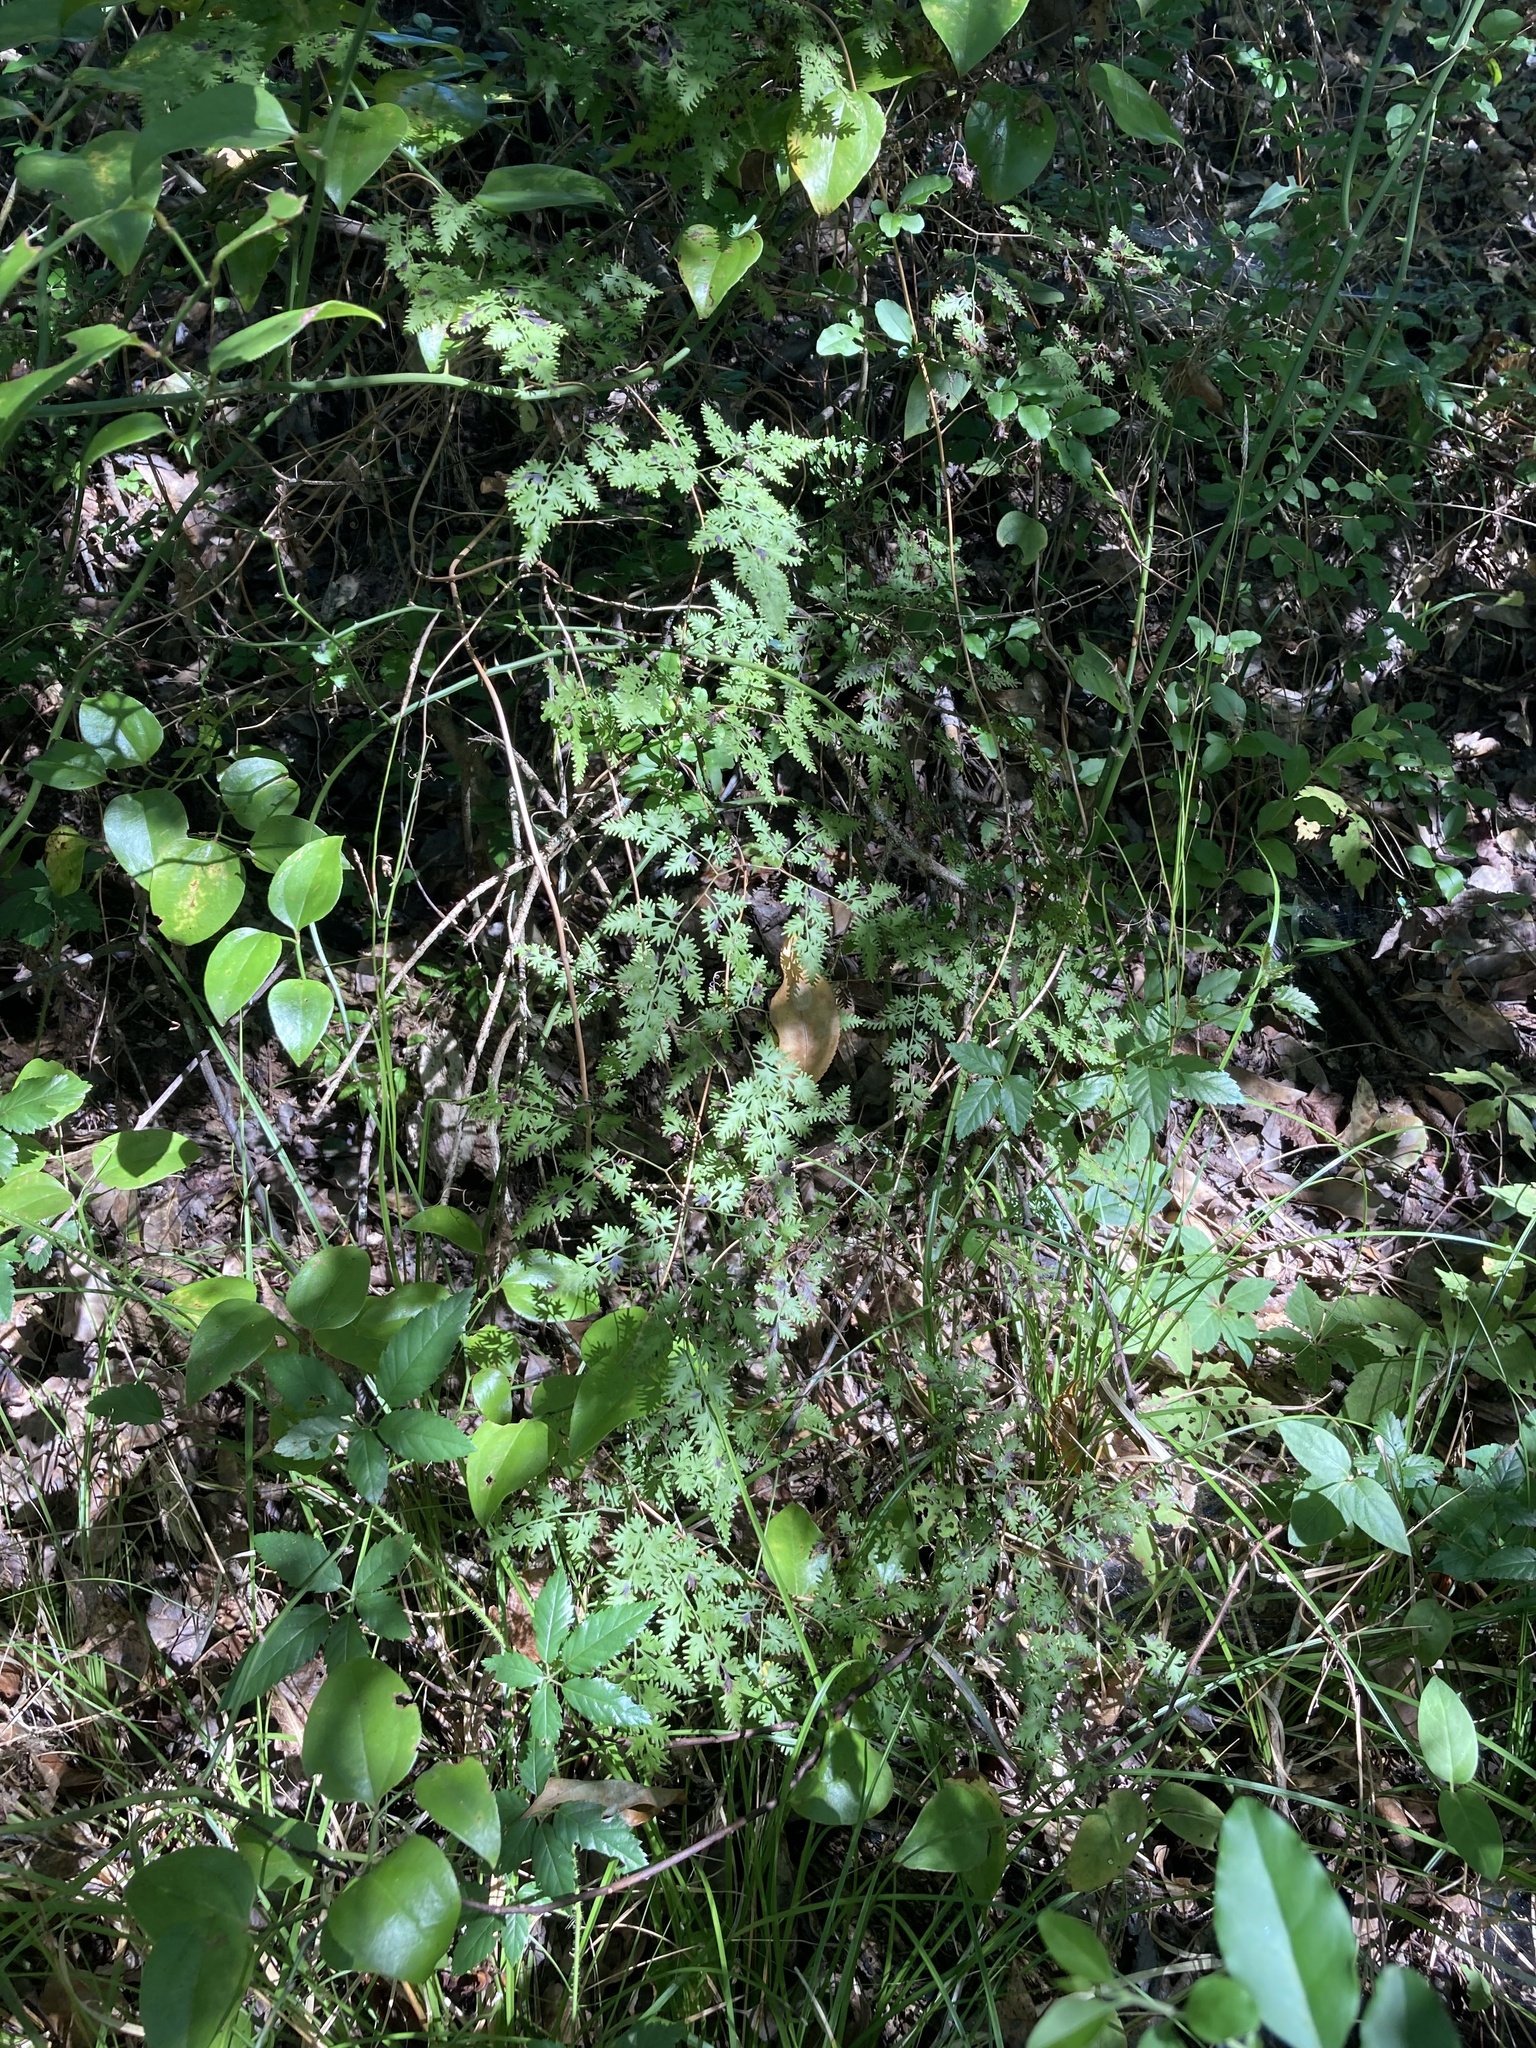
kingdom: Plantae
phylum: Tracheophyta
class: Polypodiopsida
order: Schizaeales
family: Lygodiaceae
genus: Lygodium
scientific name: Lygodium japonicum
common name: Japanese climbing fern
